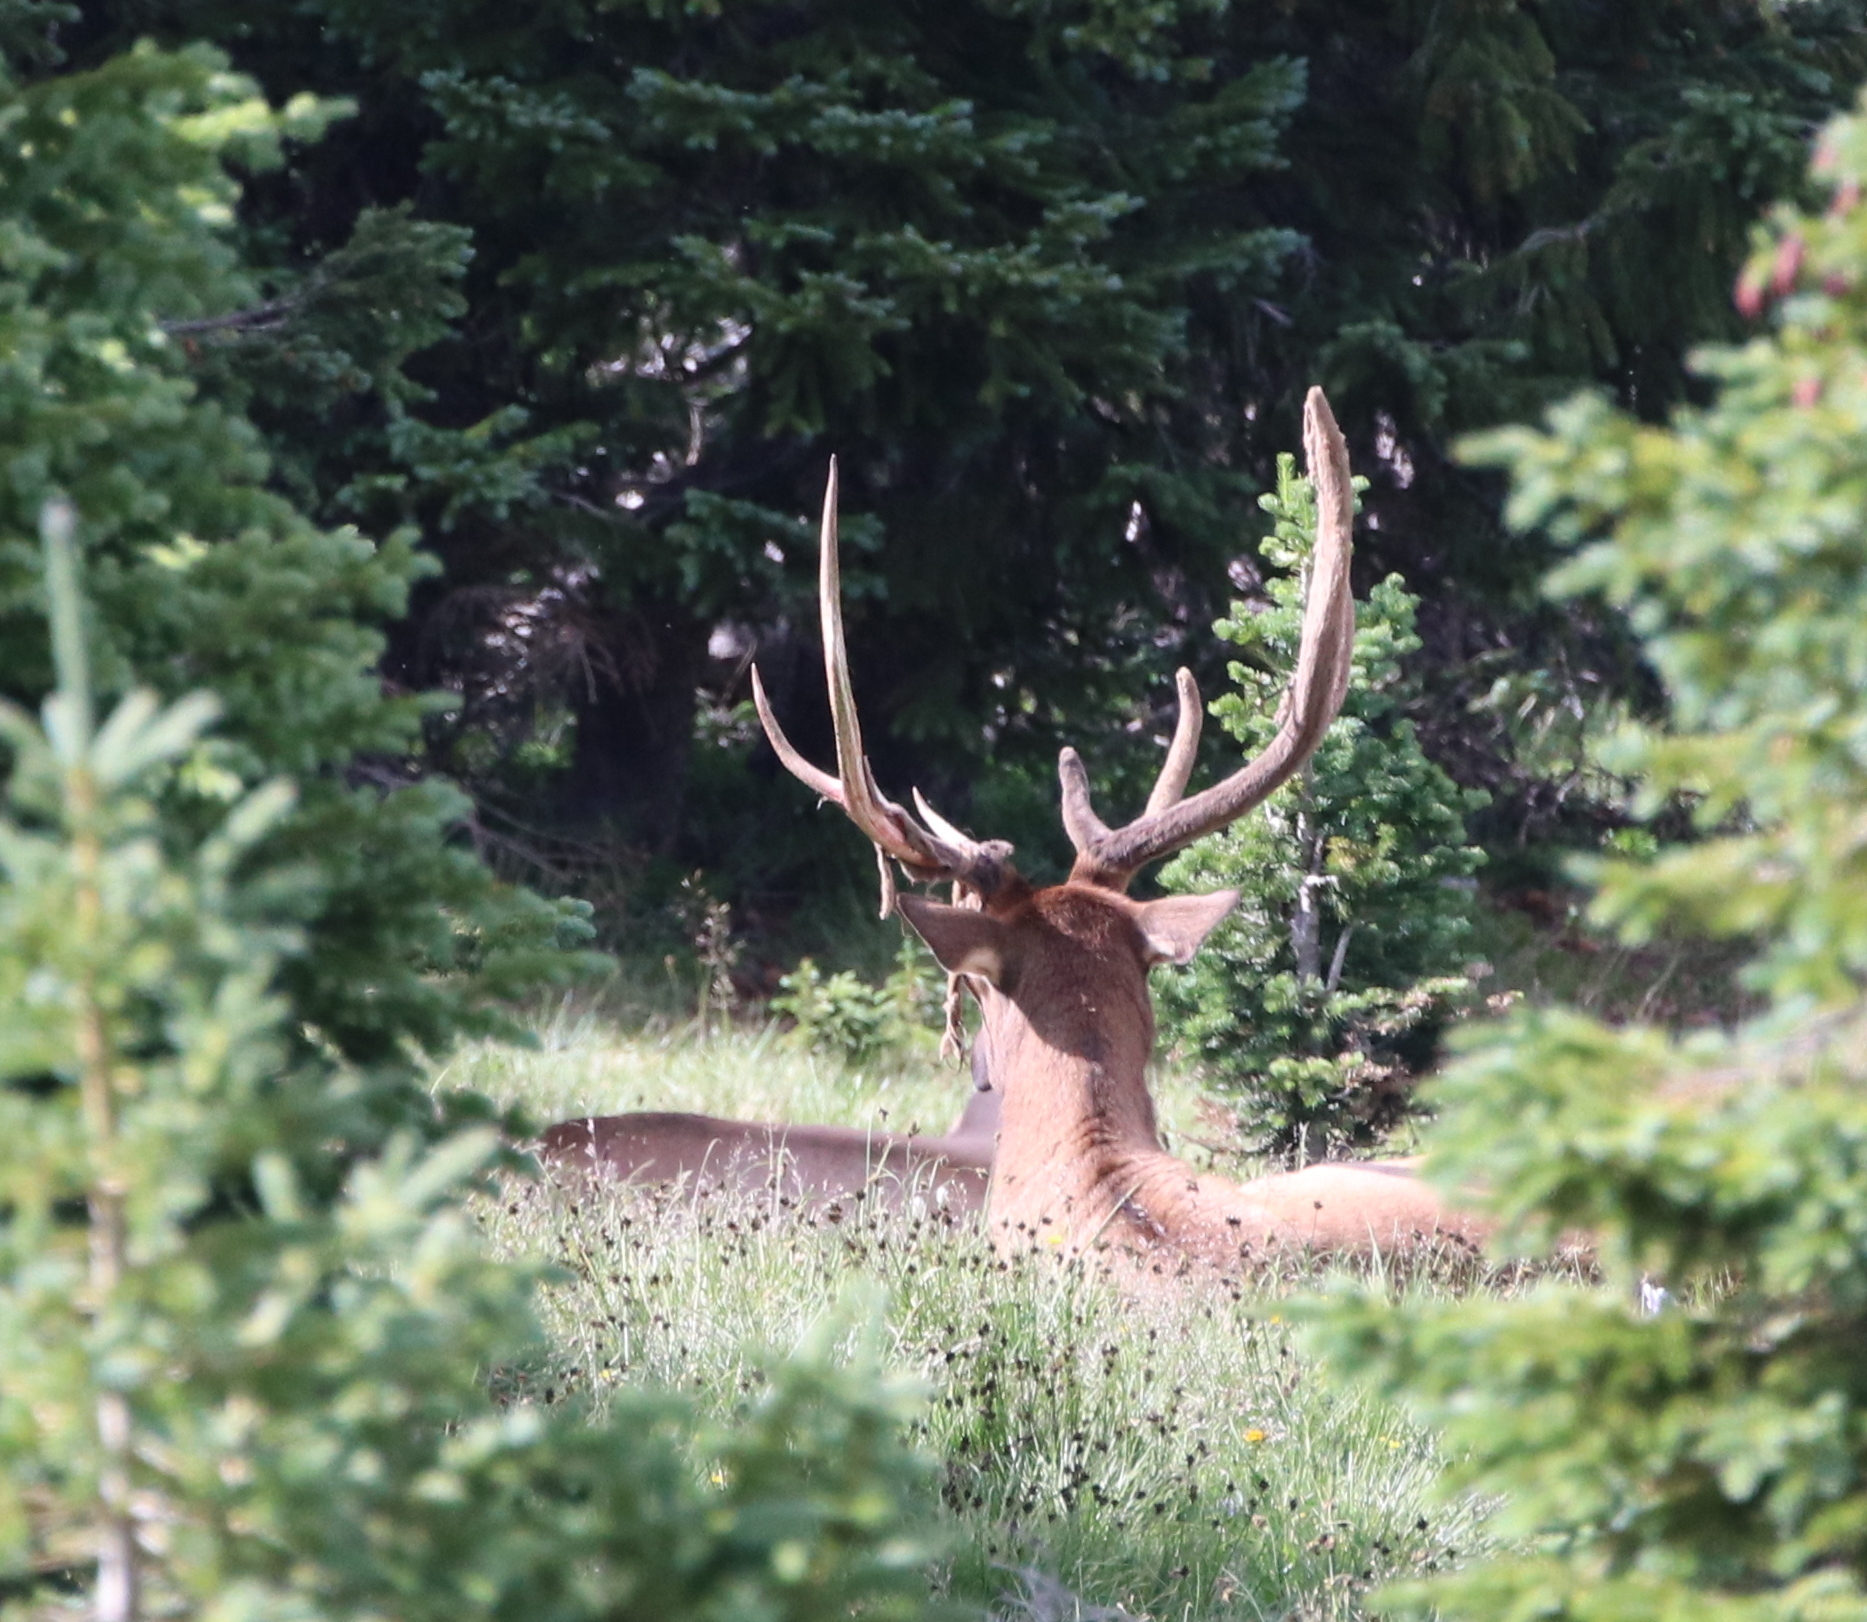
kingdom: Animalia
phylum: Chordata
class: Mammalia
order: Artiodactyla
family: Cervidae
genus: Cervus
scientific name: Cervus elaphus
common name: Red deer
